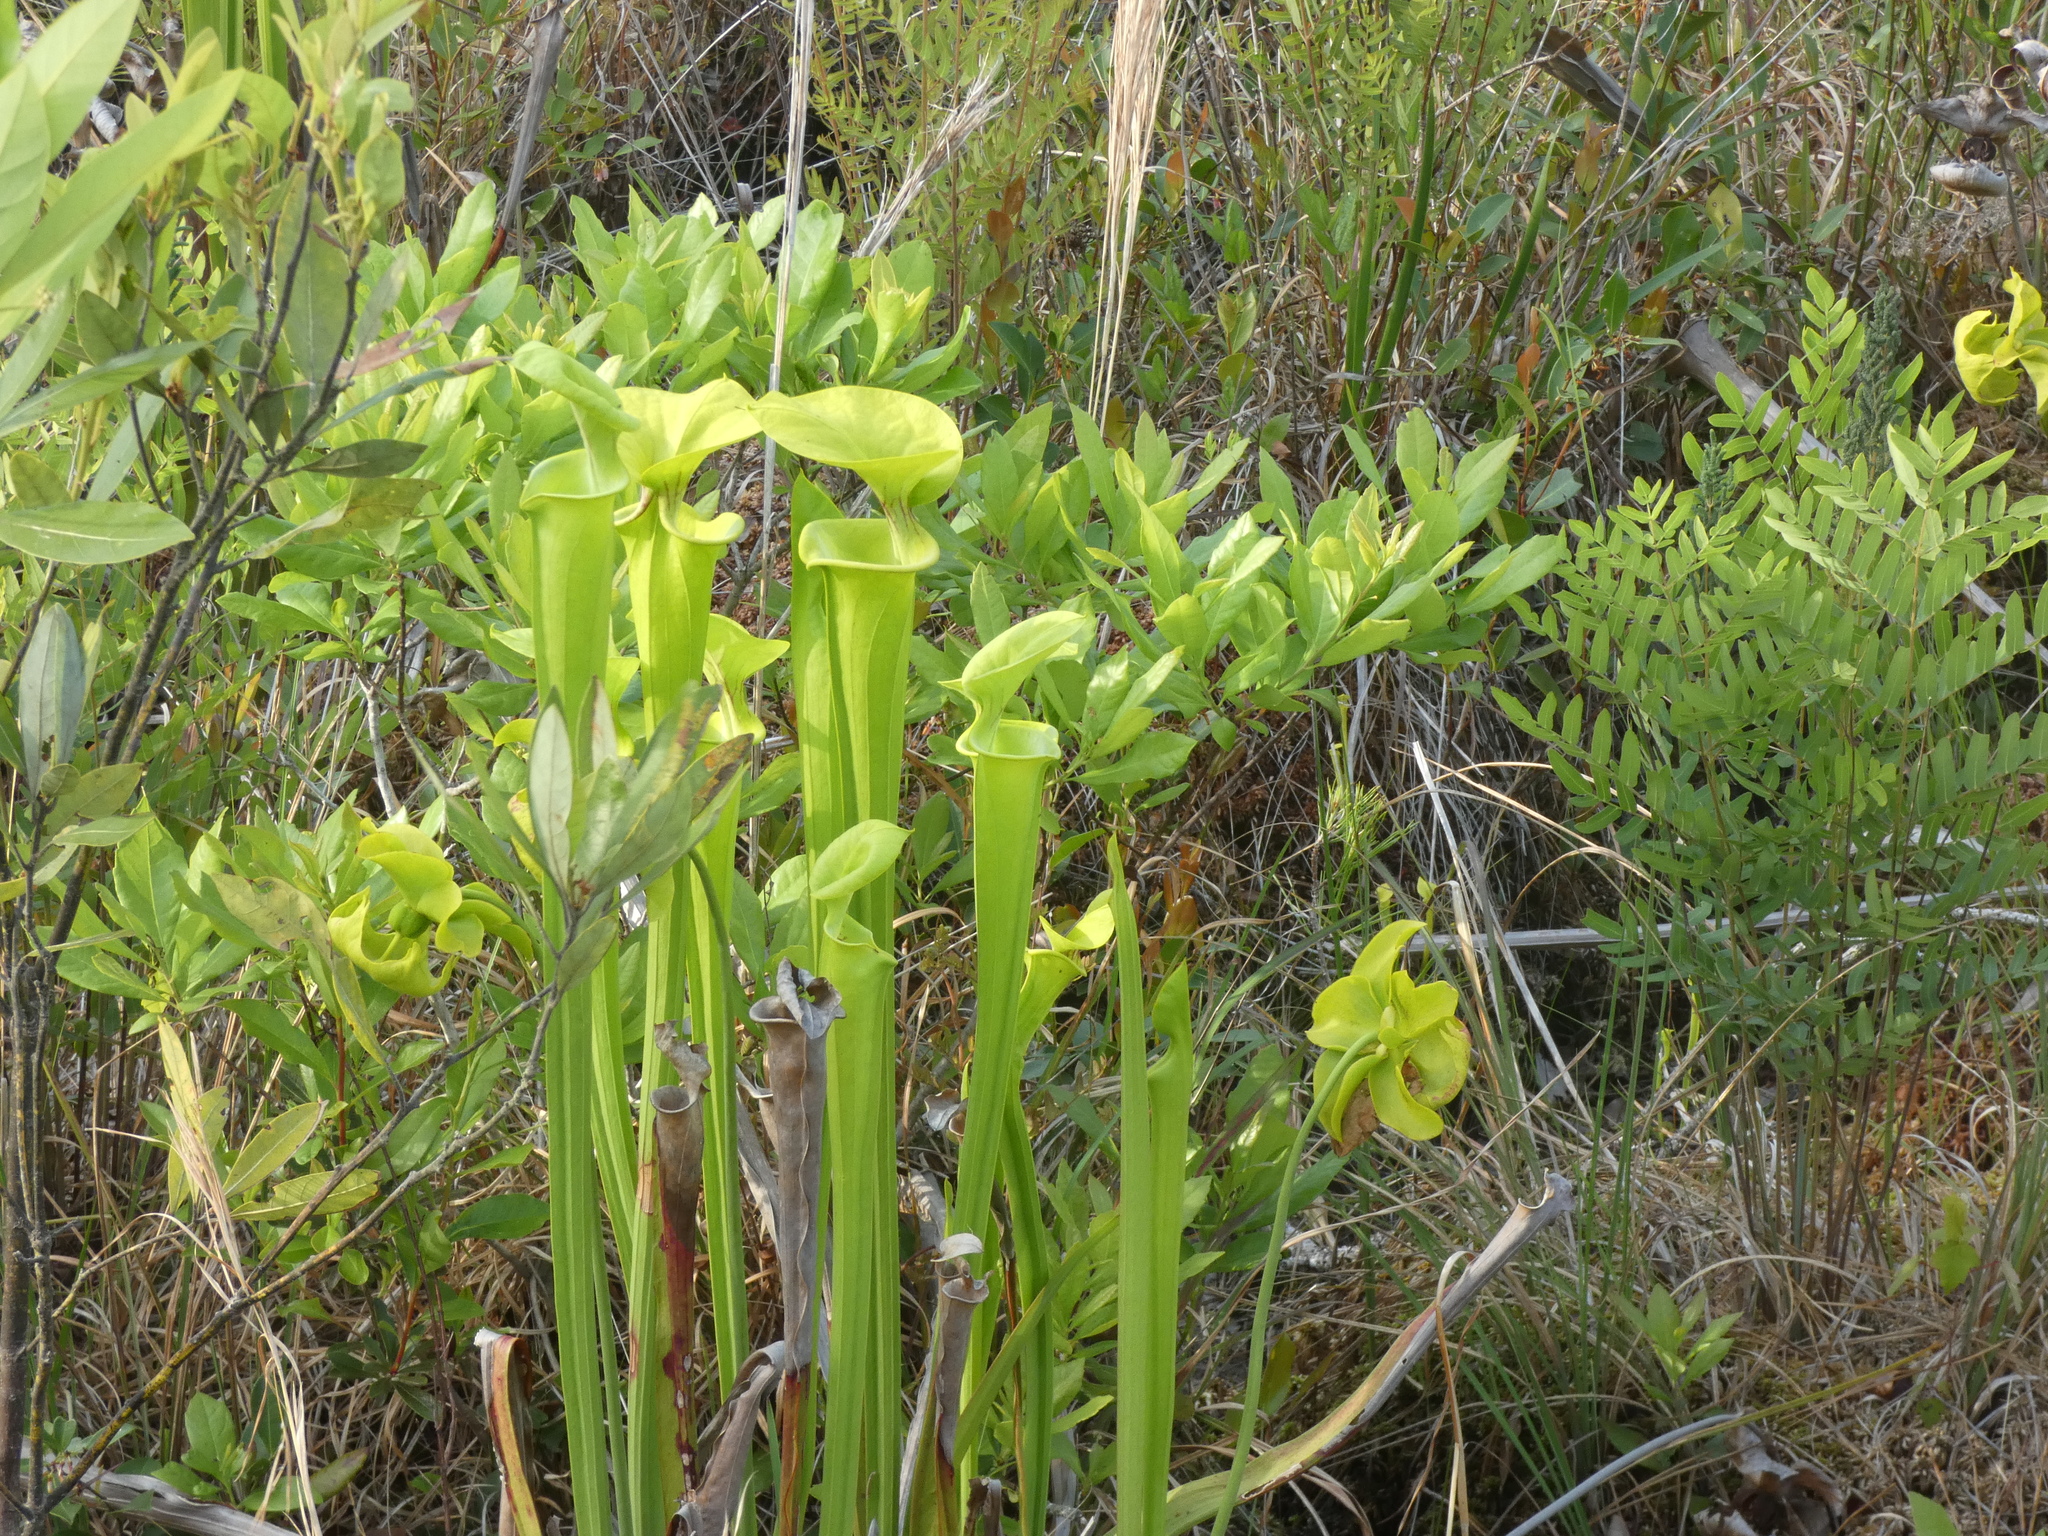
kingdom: Plantae
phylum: Tracheophyta
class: Magnoliopsida
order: Ericales
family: Sarraceniaceae
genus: Sarracenia
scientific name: Sarracenia flava
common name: Trumpets
